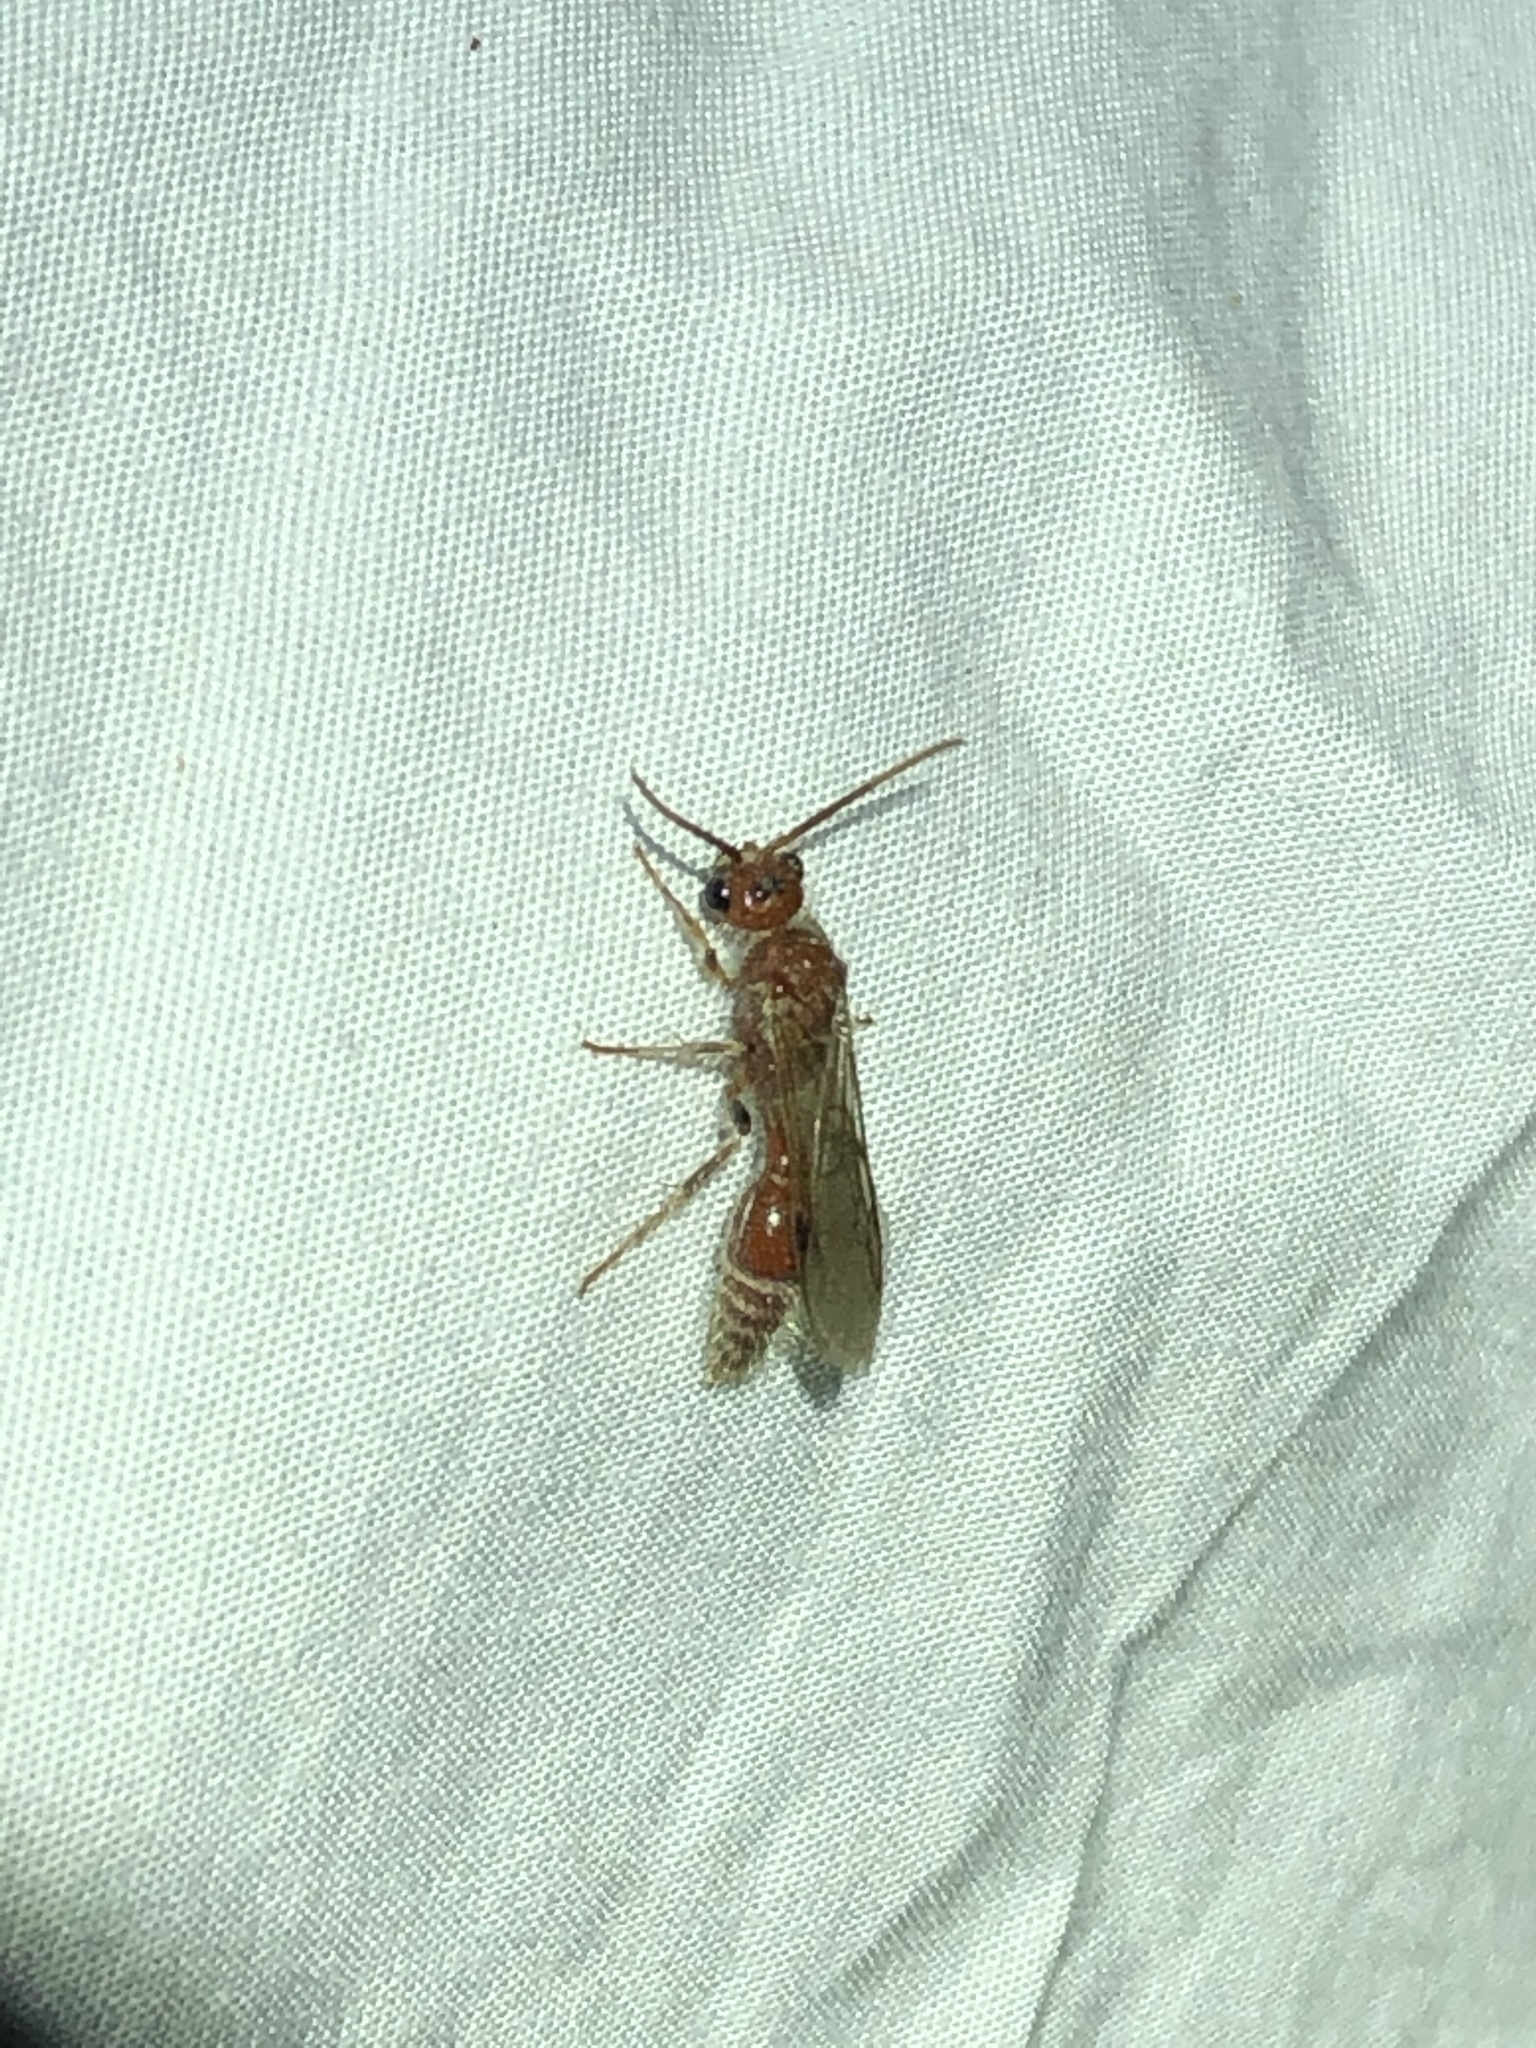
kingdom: Animalia
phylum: Arthropoda
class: Insecta
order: Hymenoptera
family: Mutillidae
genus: Odontophotopsis
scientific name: Odontophotopsis
